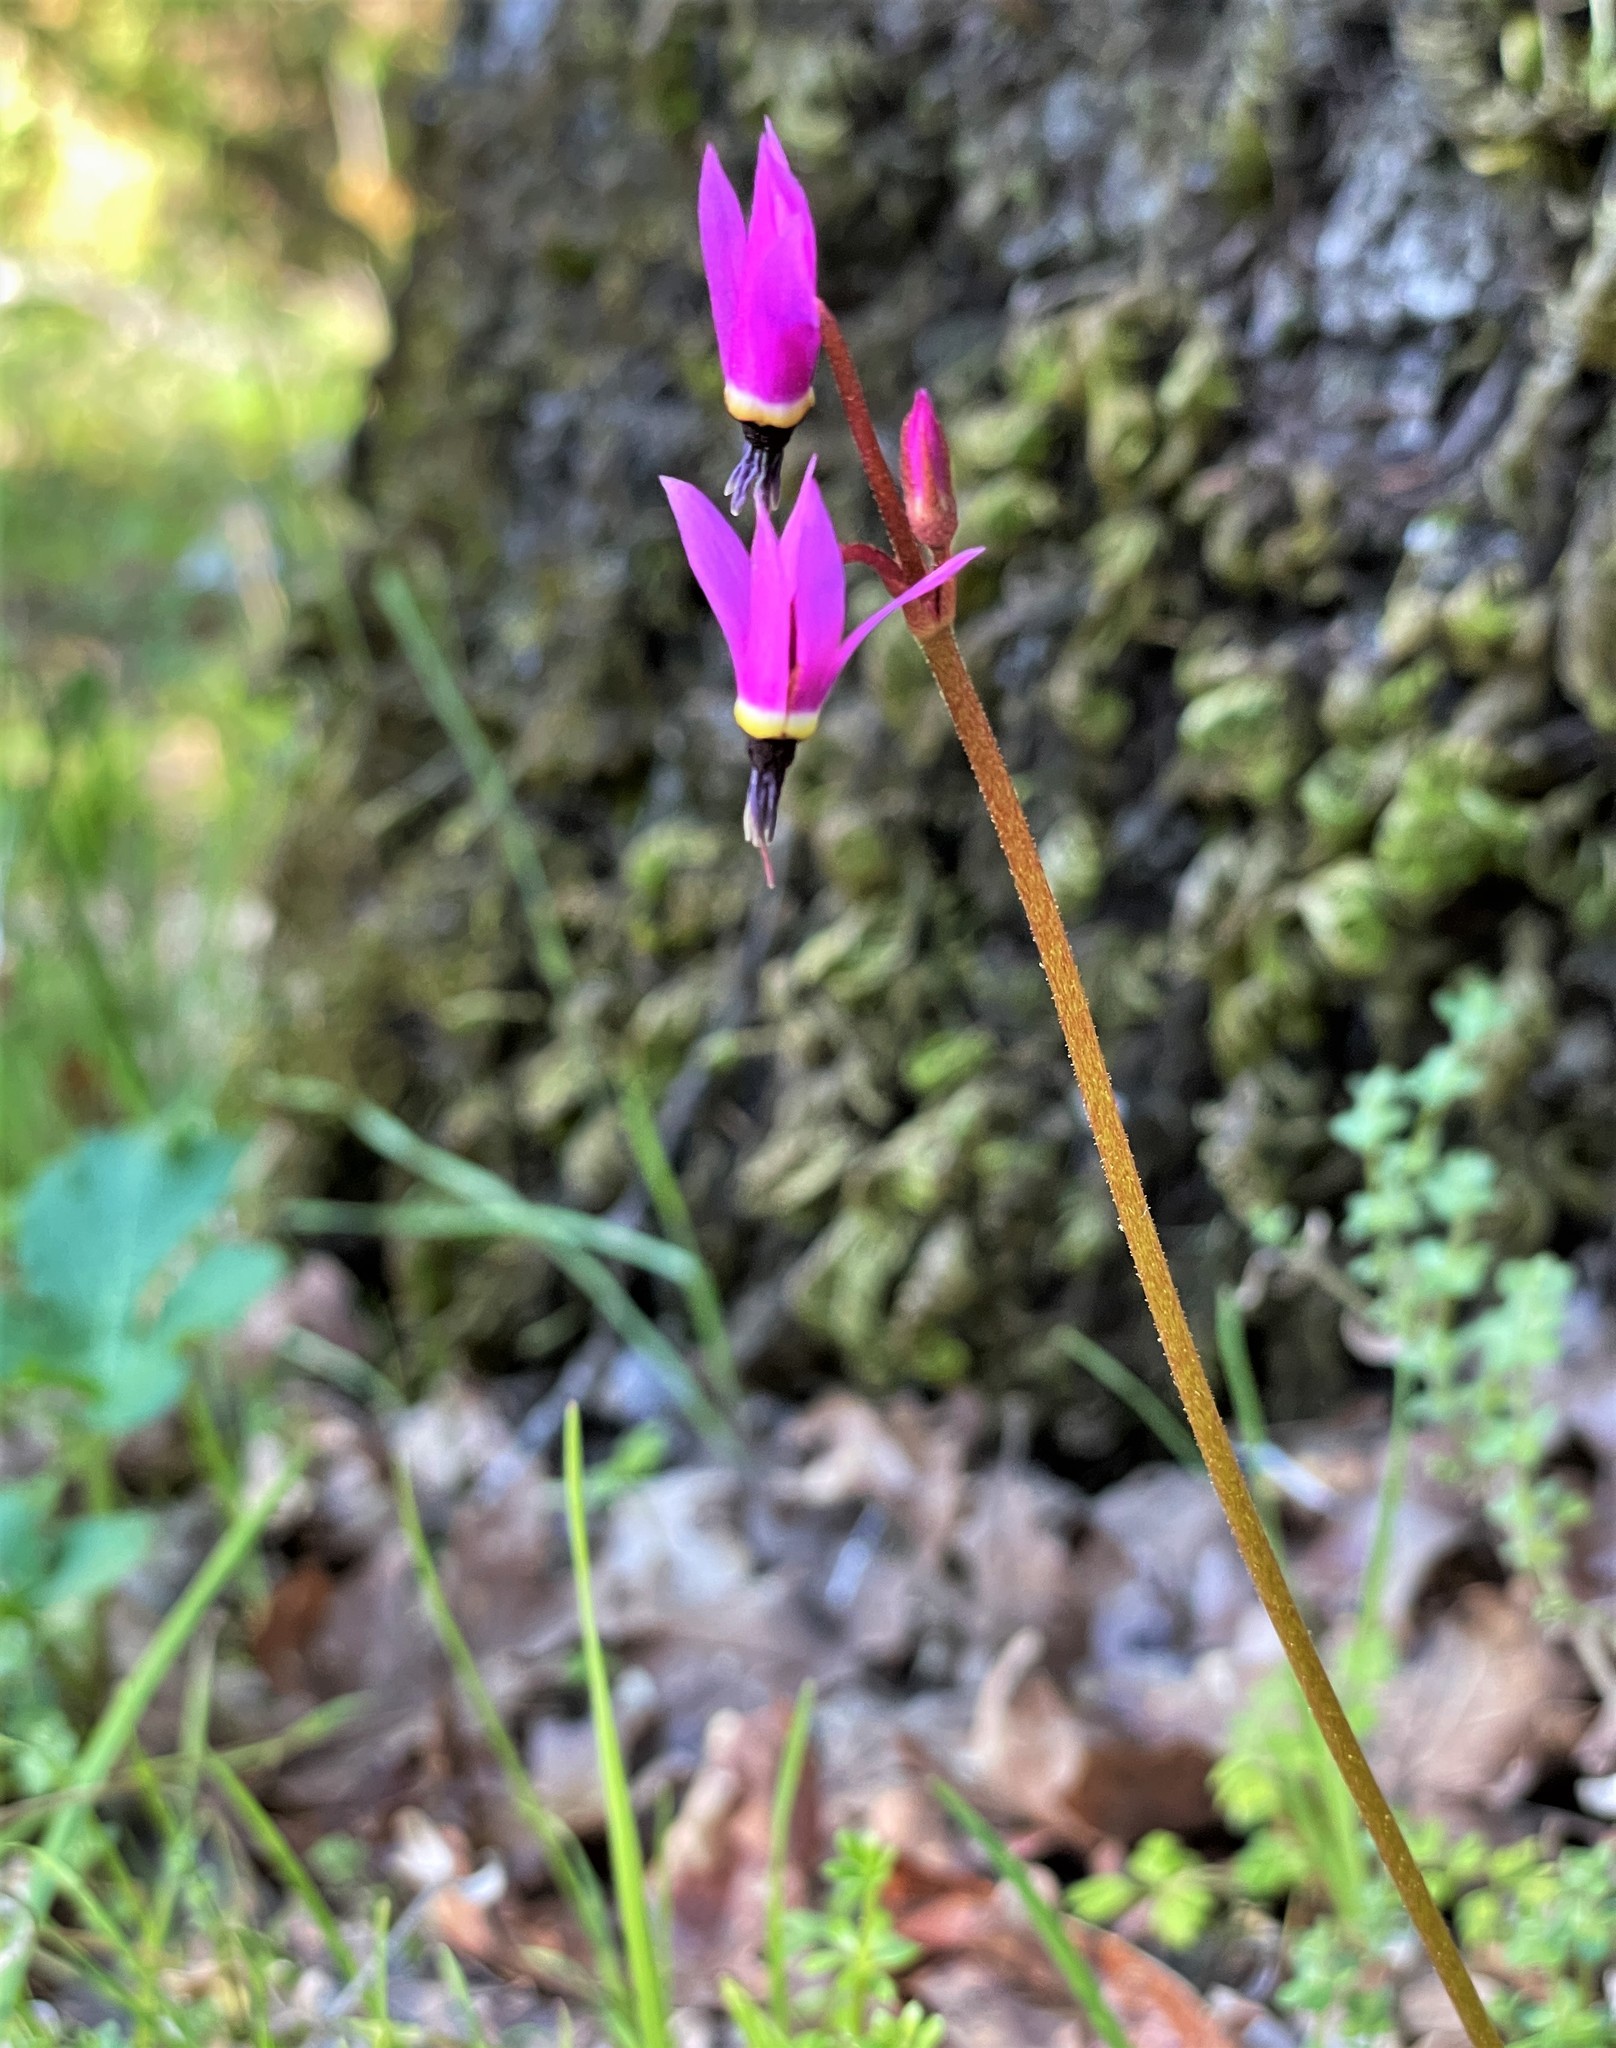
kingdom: Plantae
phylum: Tracheophyta
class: Magnoliopsida
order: Ericales
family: Primulaceae
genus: Dodecatheon
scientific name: Dodecatheon hendersonii
